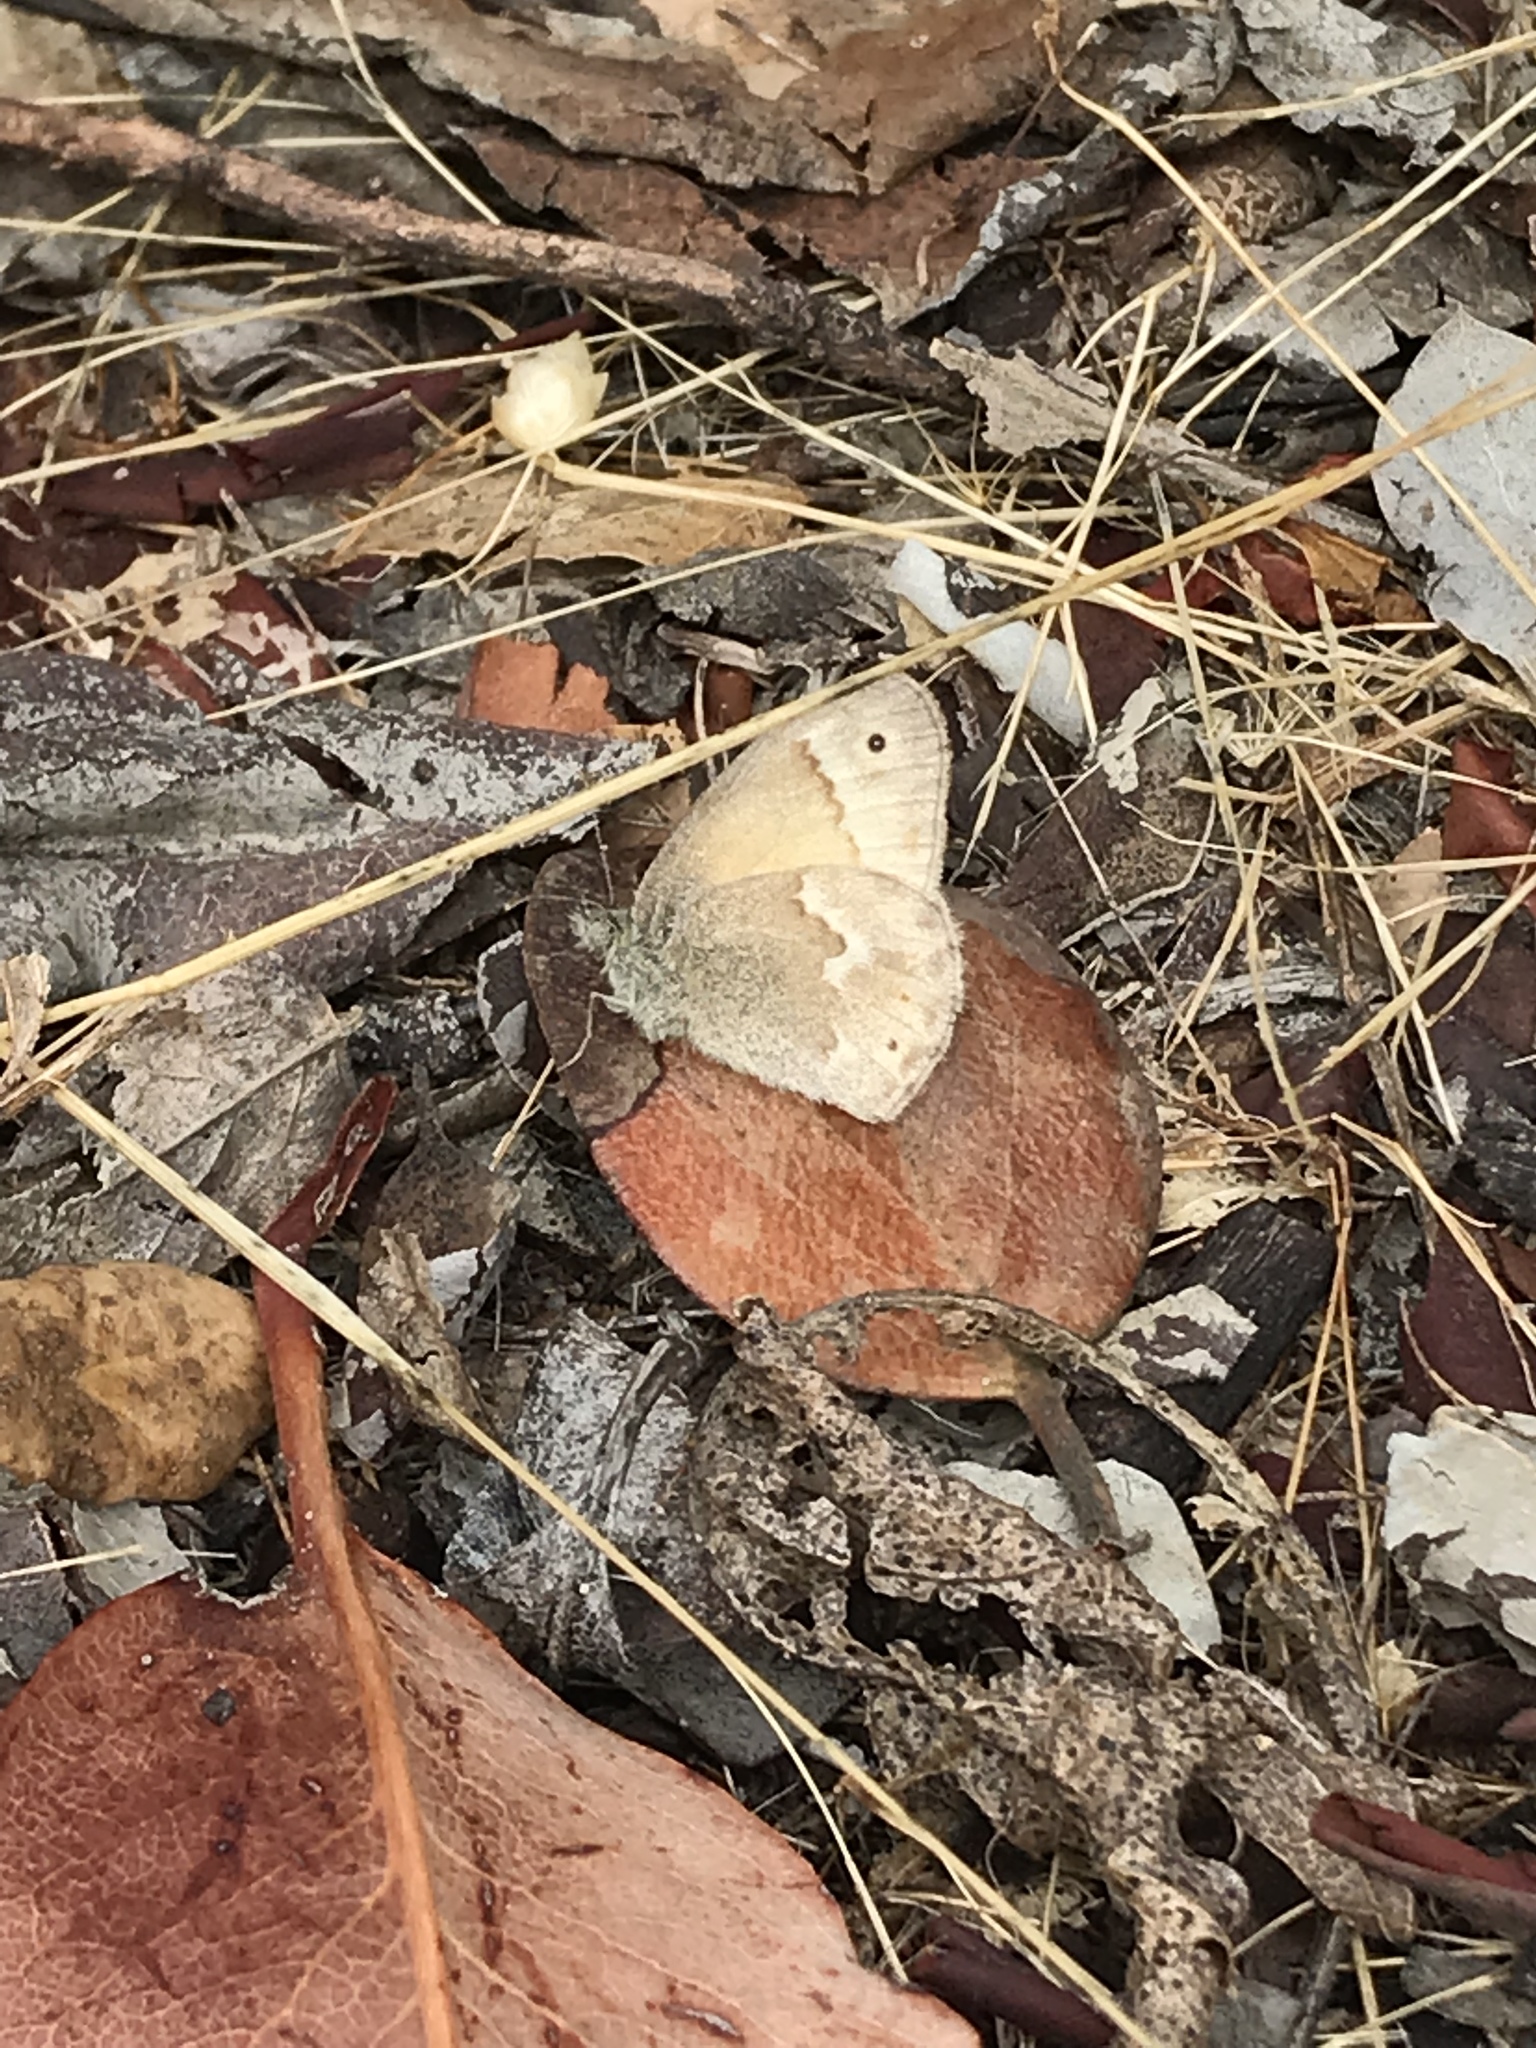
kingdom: Animalia
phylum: Arthropoda
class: Insecta
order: Lepidoptera
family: Nymphalidae
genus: Coenonympha
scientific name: Coenonympha california
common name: Common ringlet
